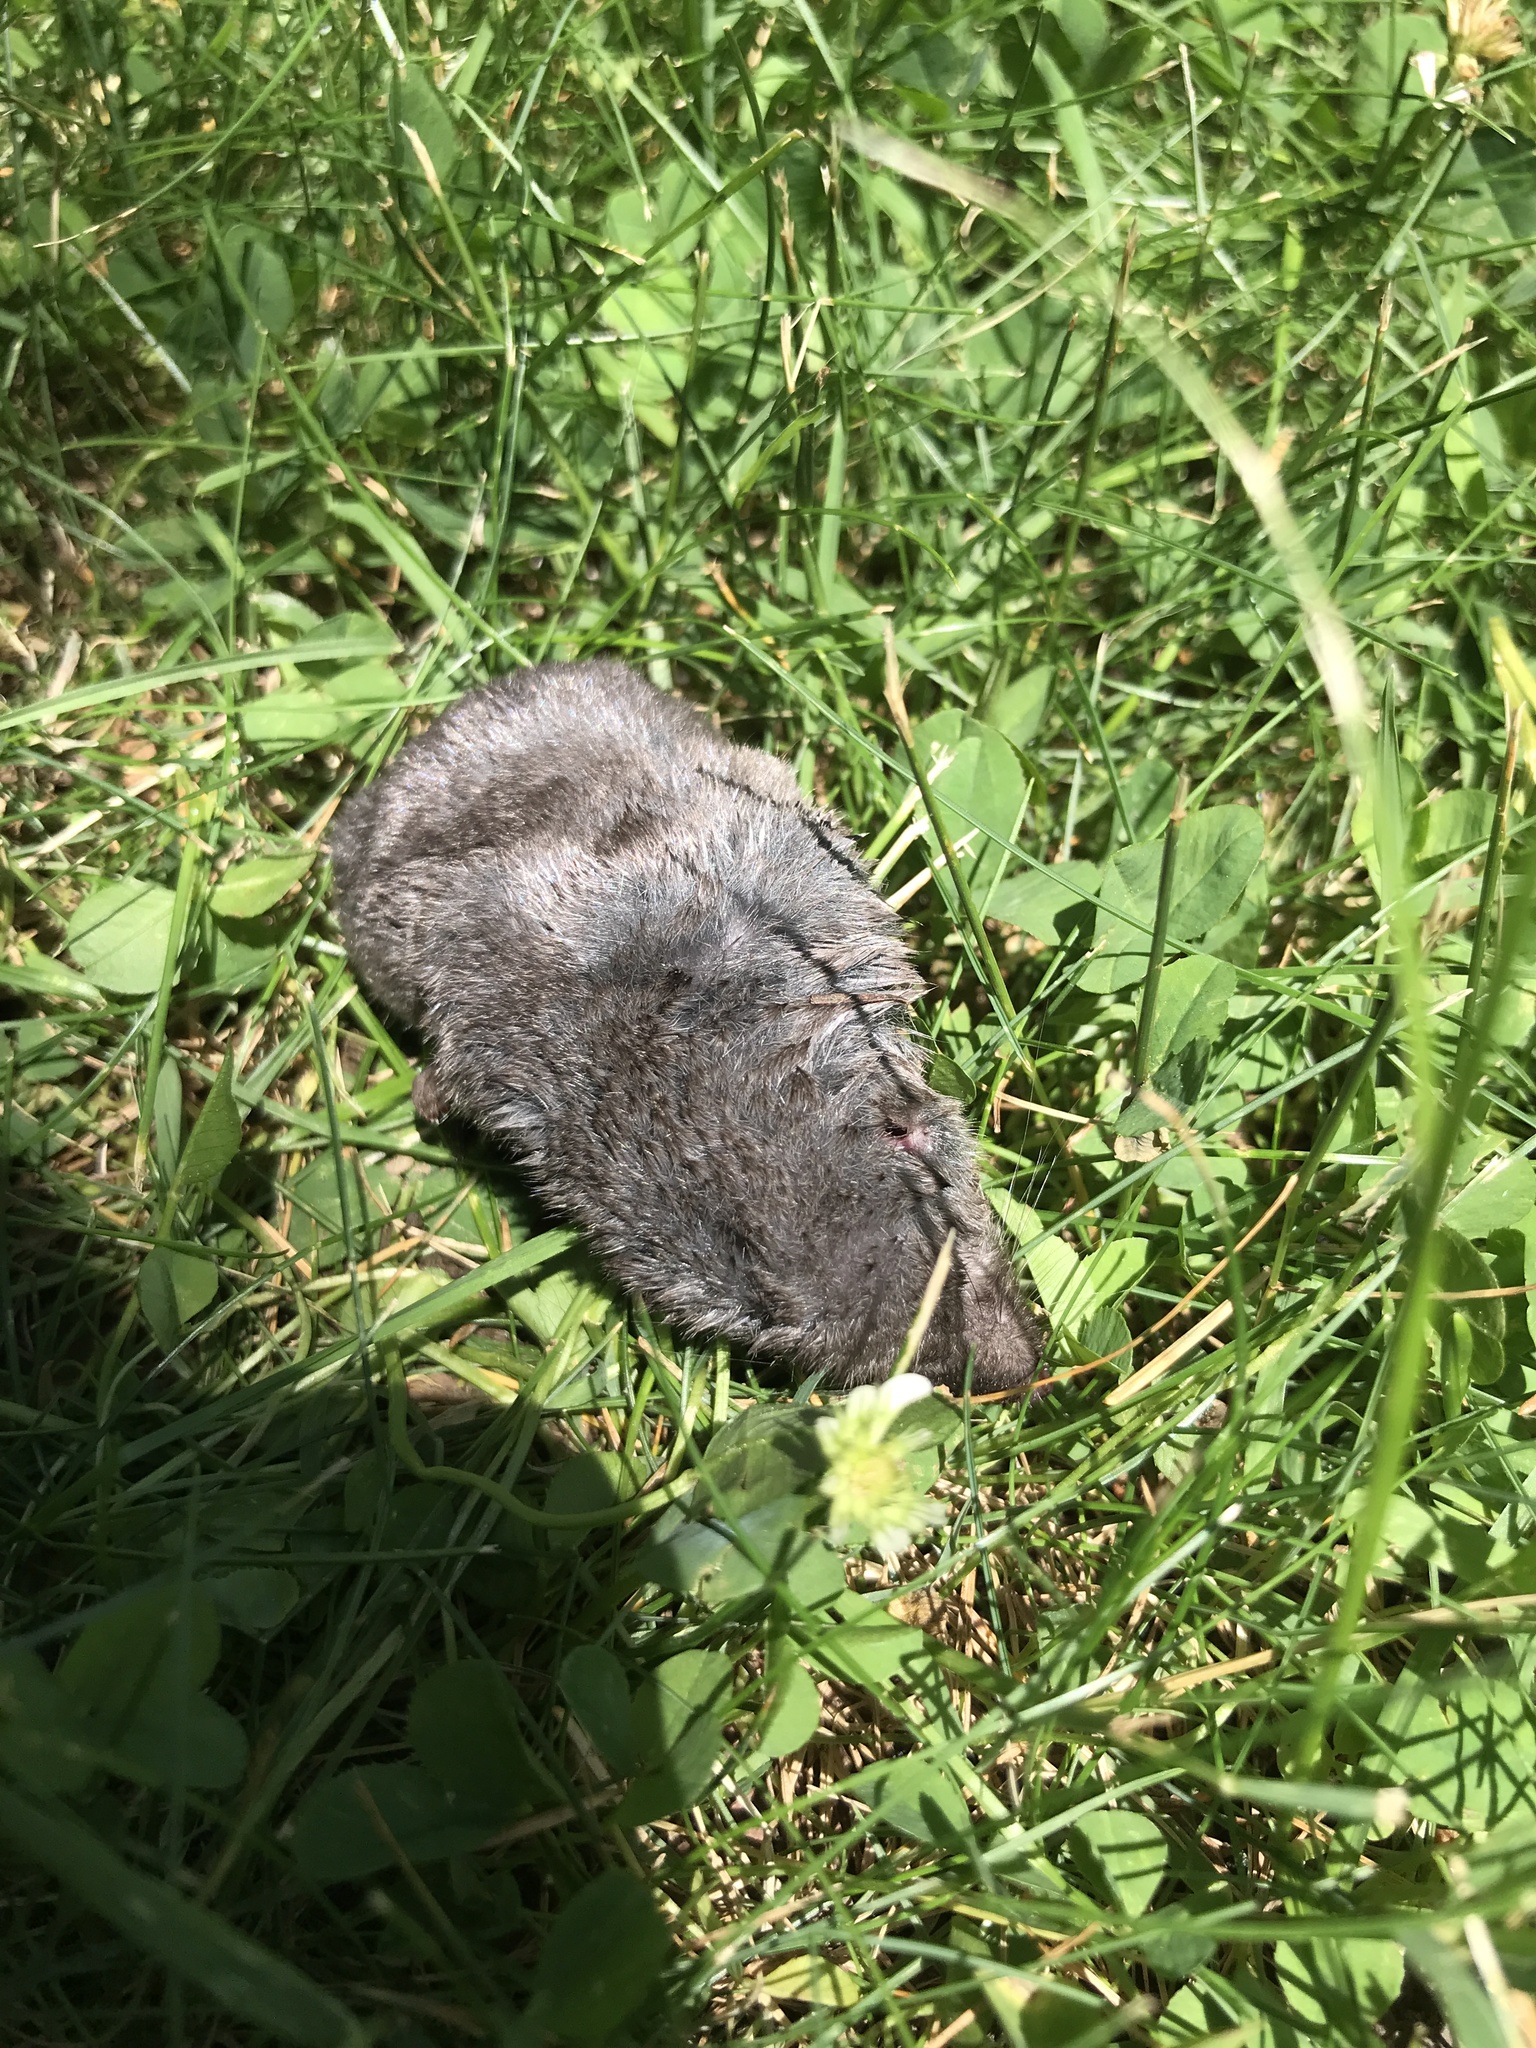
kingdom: Animalia
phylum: Chordata
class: Mammalia
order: Soricomorpha
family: Soricidae
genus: Blarina
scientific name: Blarina brevicauda
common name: Northern short-tailed shrew
